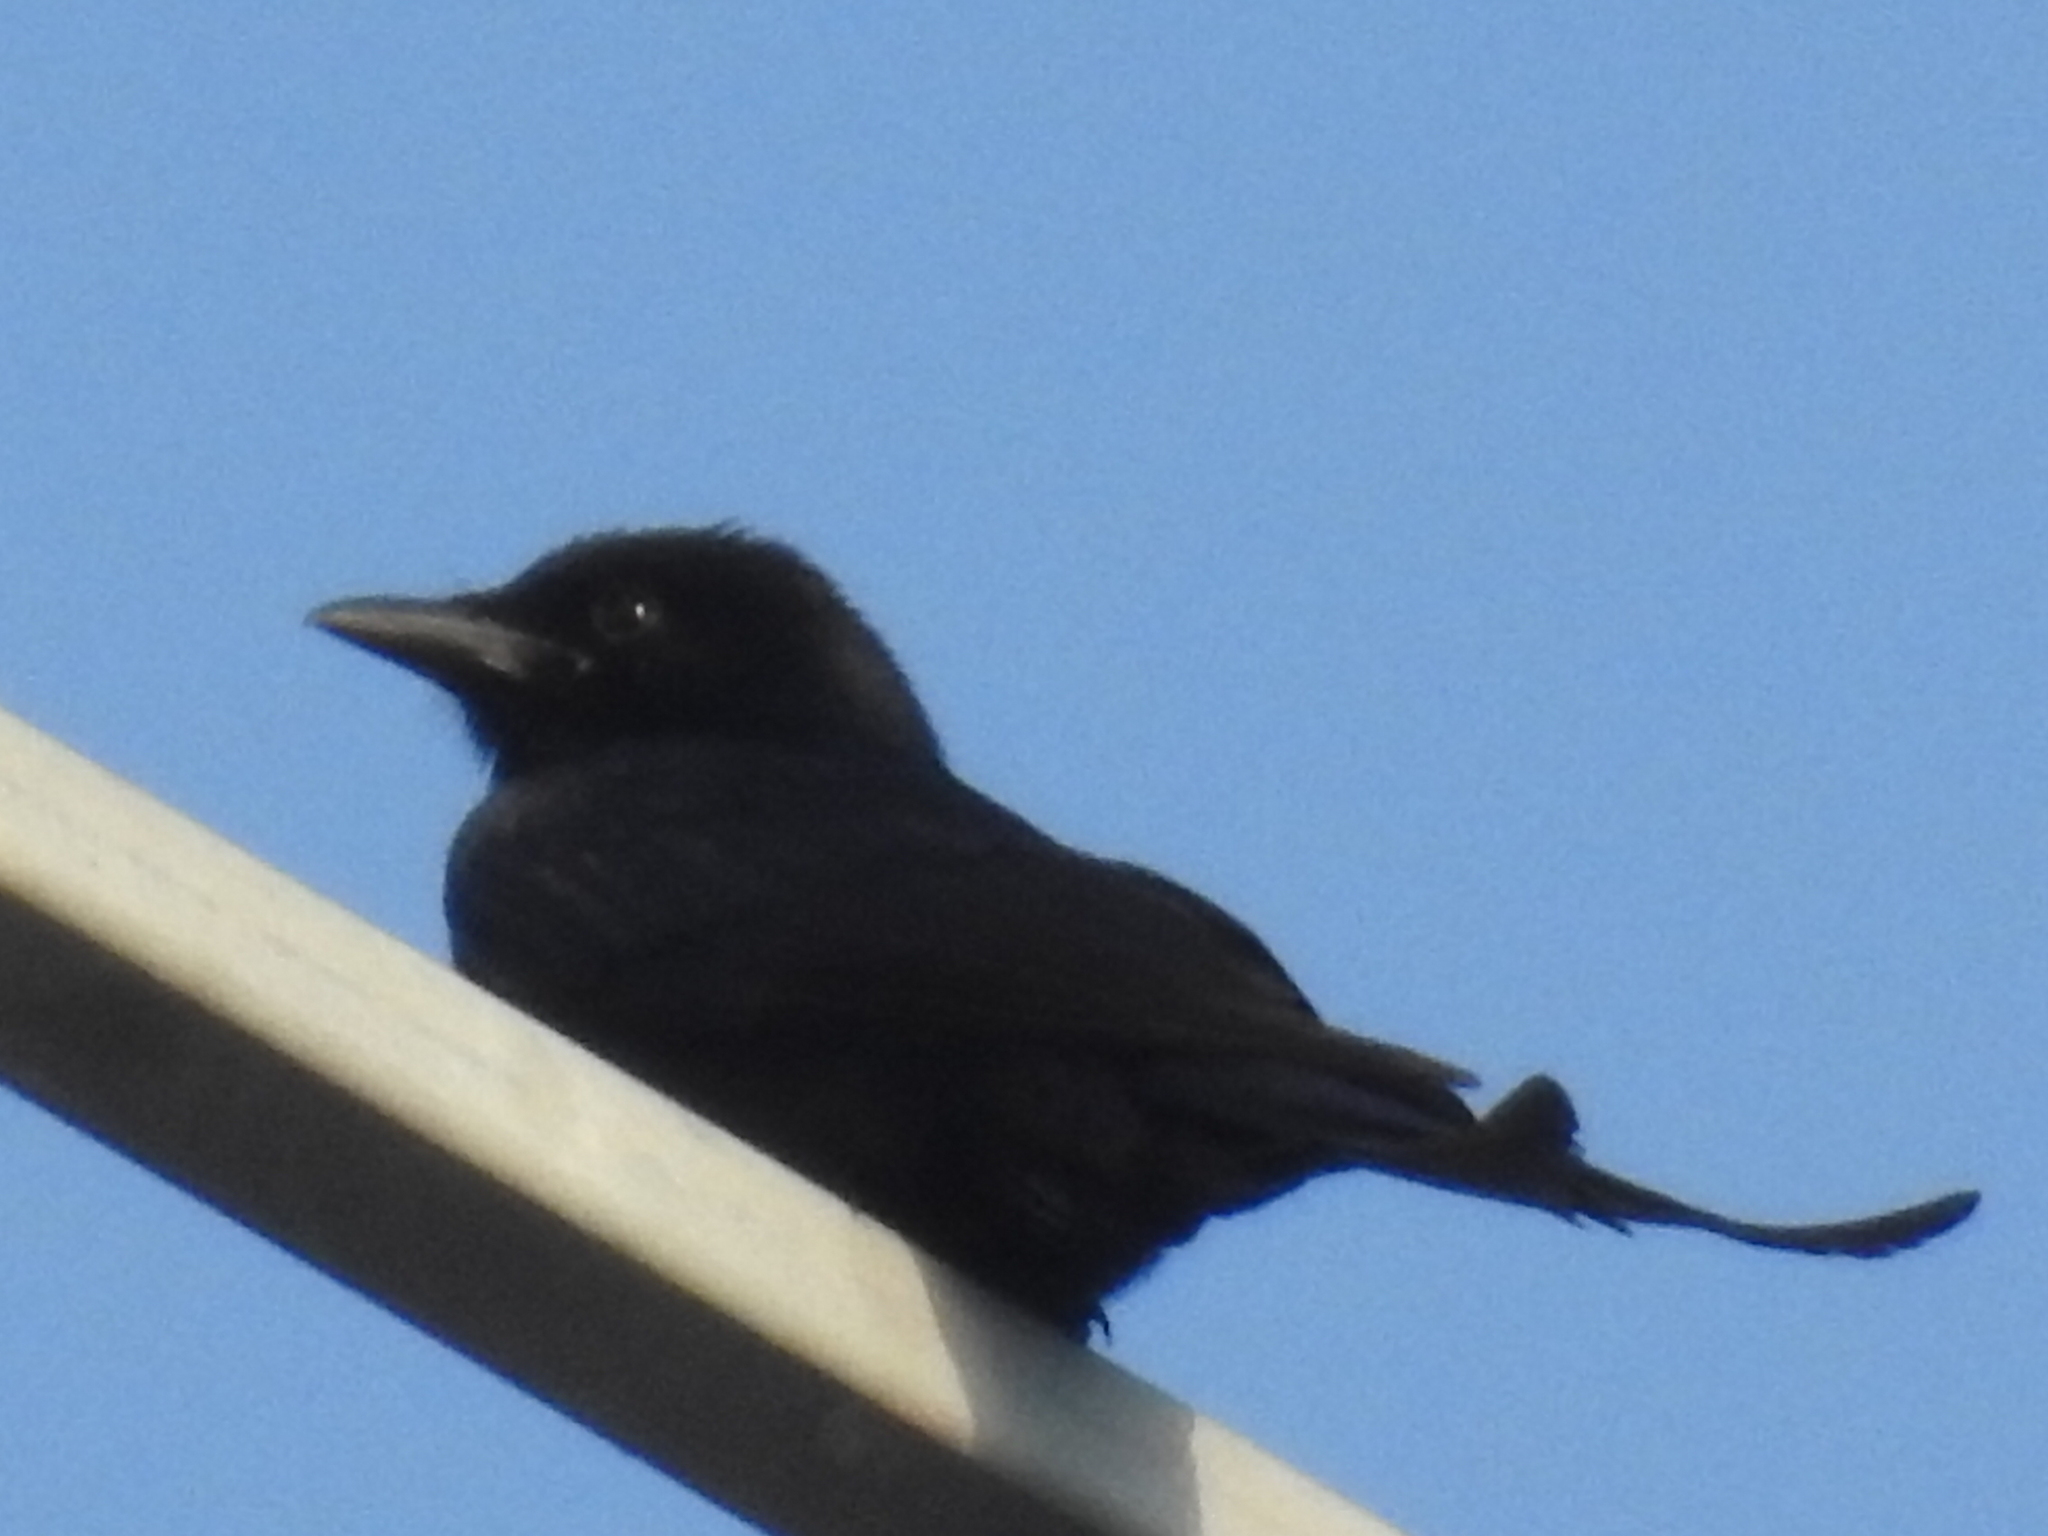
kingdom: Animalia
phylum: Chordata
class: Aves
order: Passeriformes
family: Dicruridae
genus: Dicrurus
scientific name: Dicrurus macrocercus
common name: Black drongo
